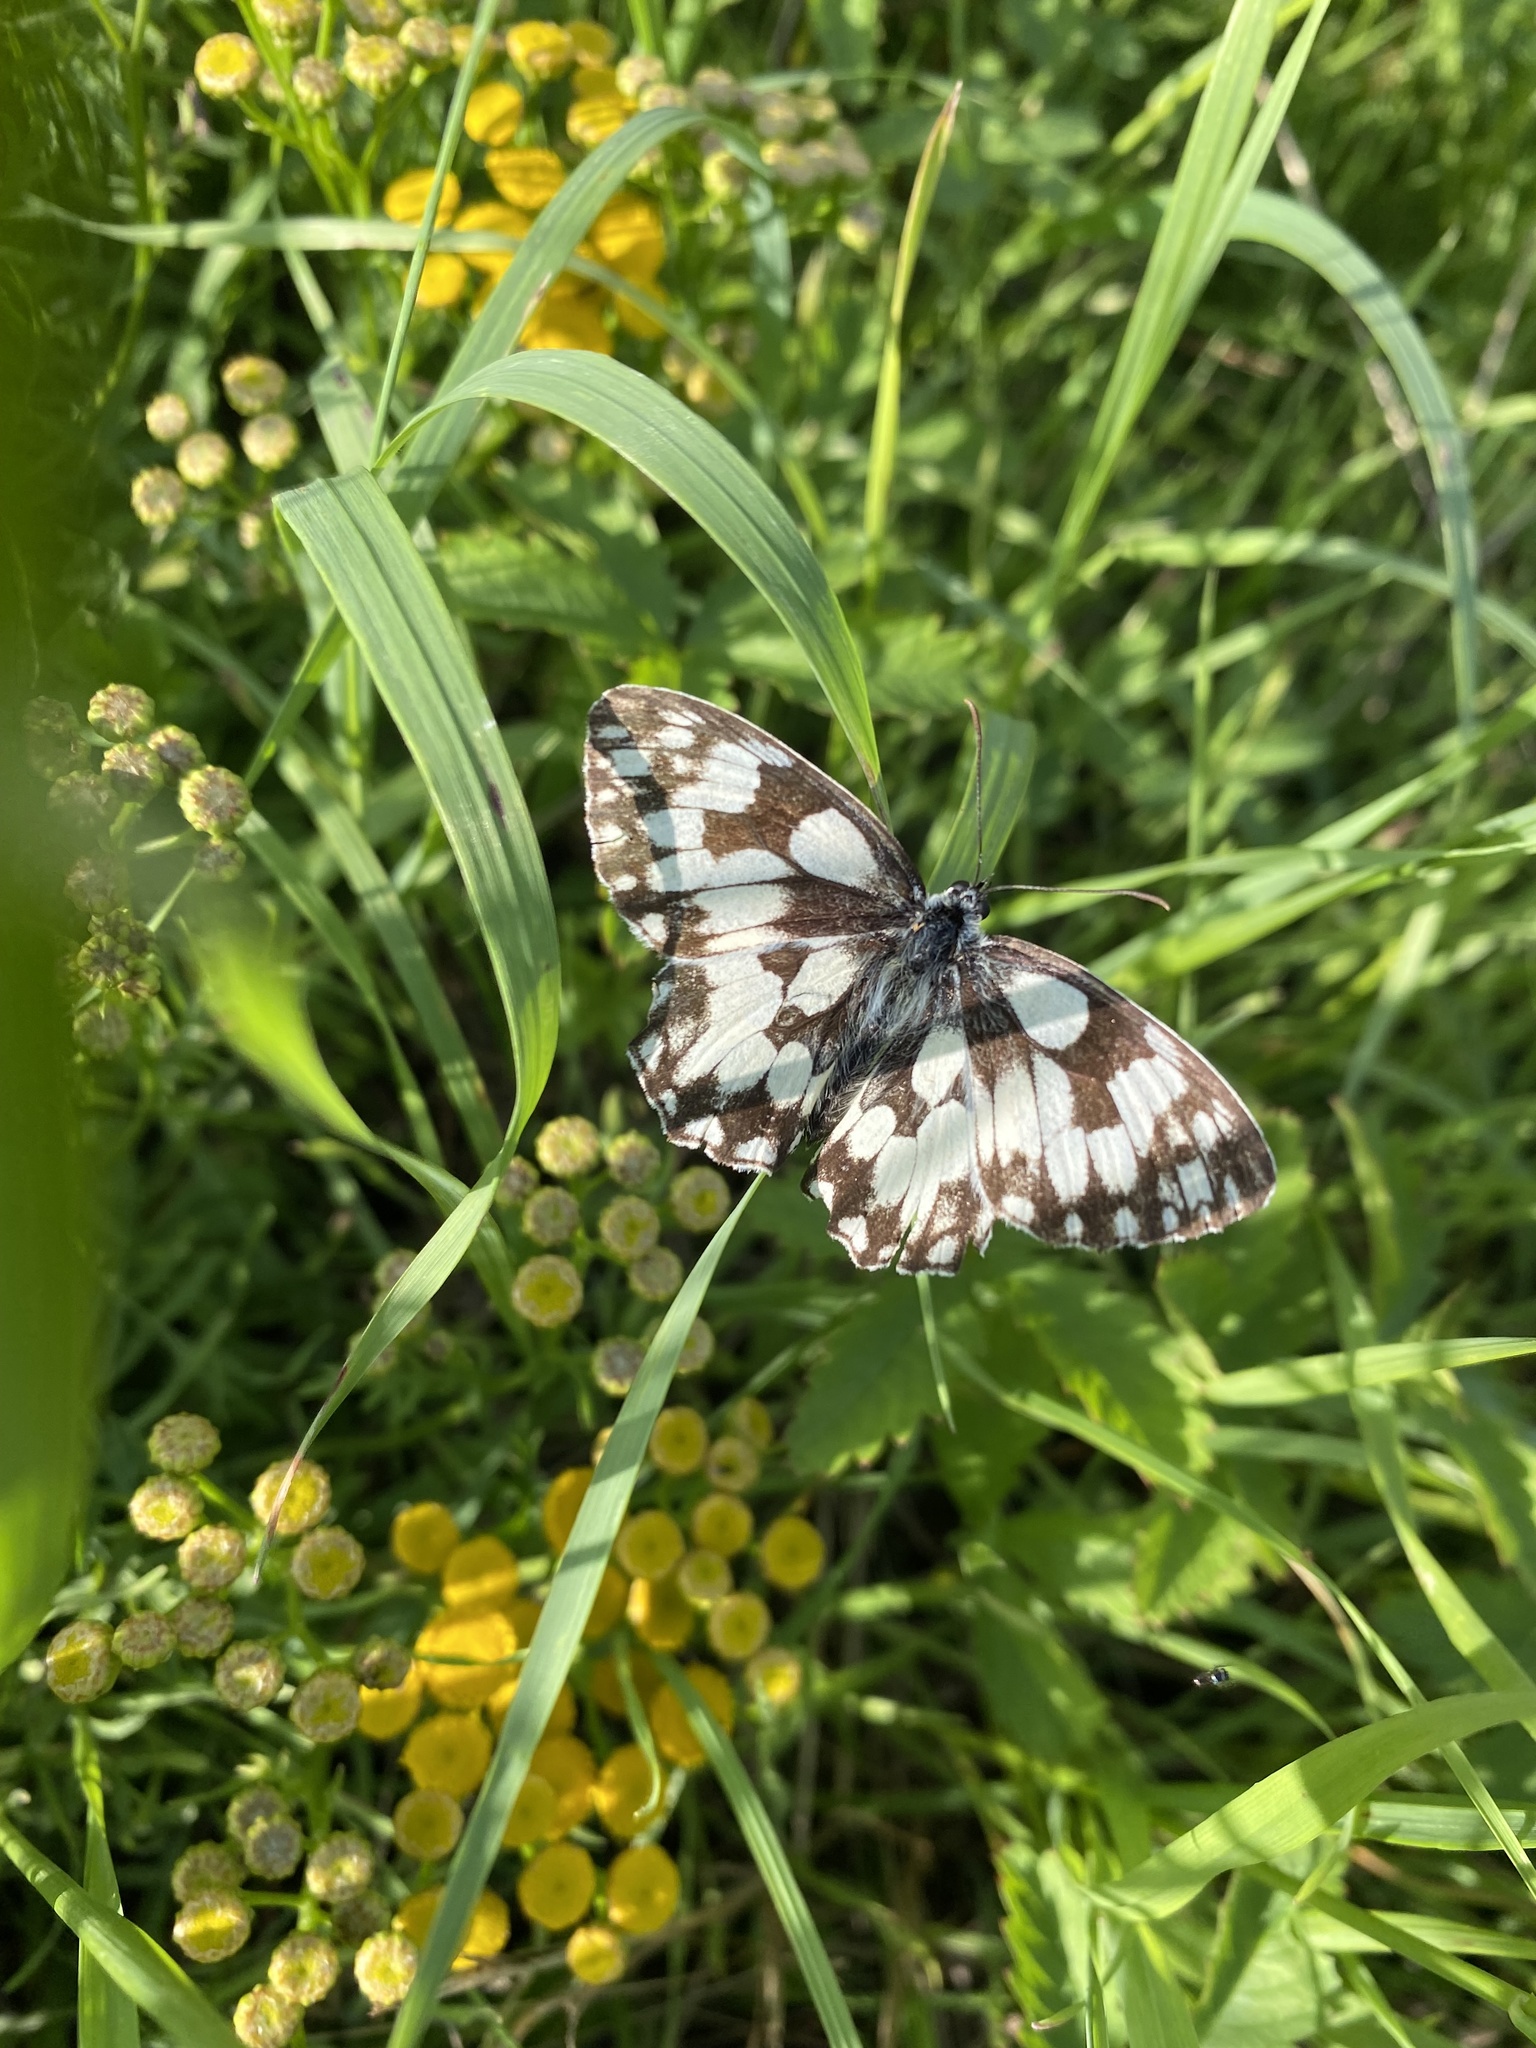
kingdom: Animalia
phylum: Arthropoda
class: Insecta
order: Lepidoptera
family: Nymphalidae
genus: Melanargia
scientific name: Melanargia galathea
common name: Marbled white
